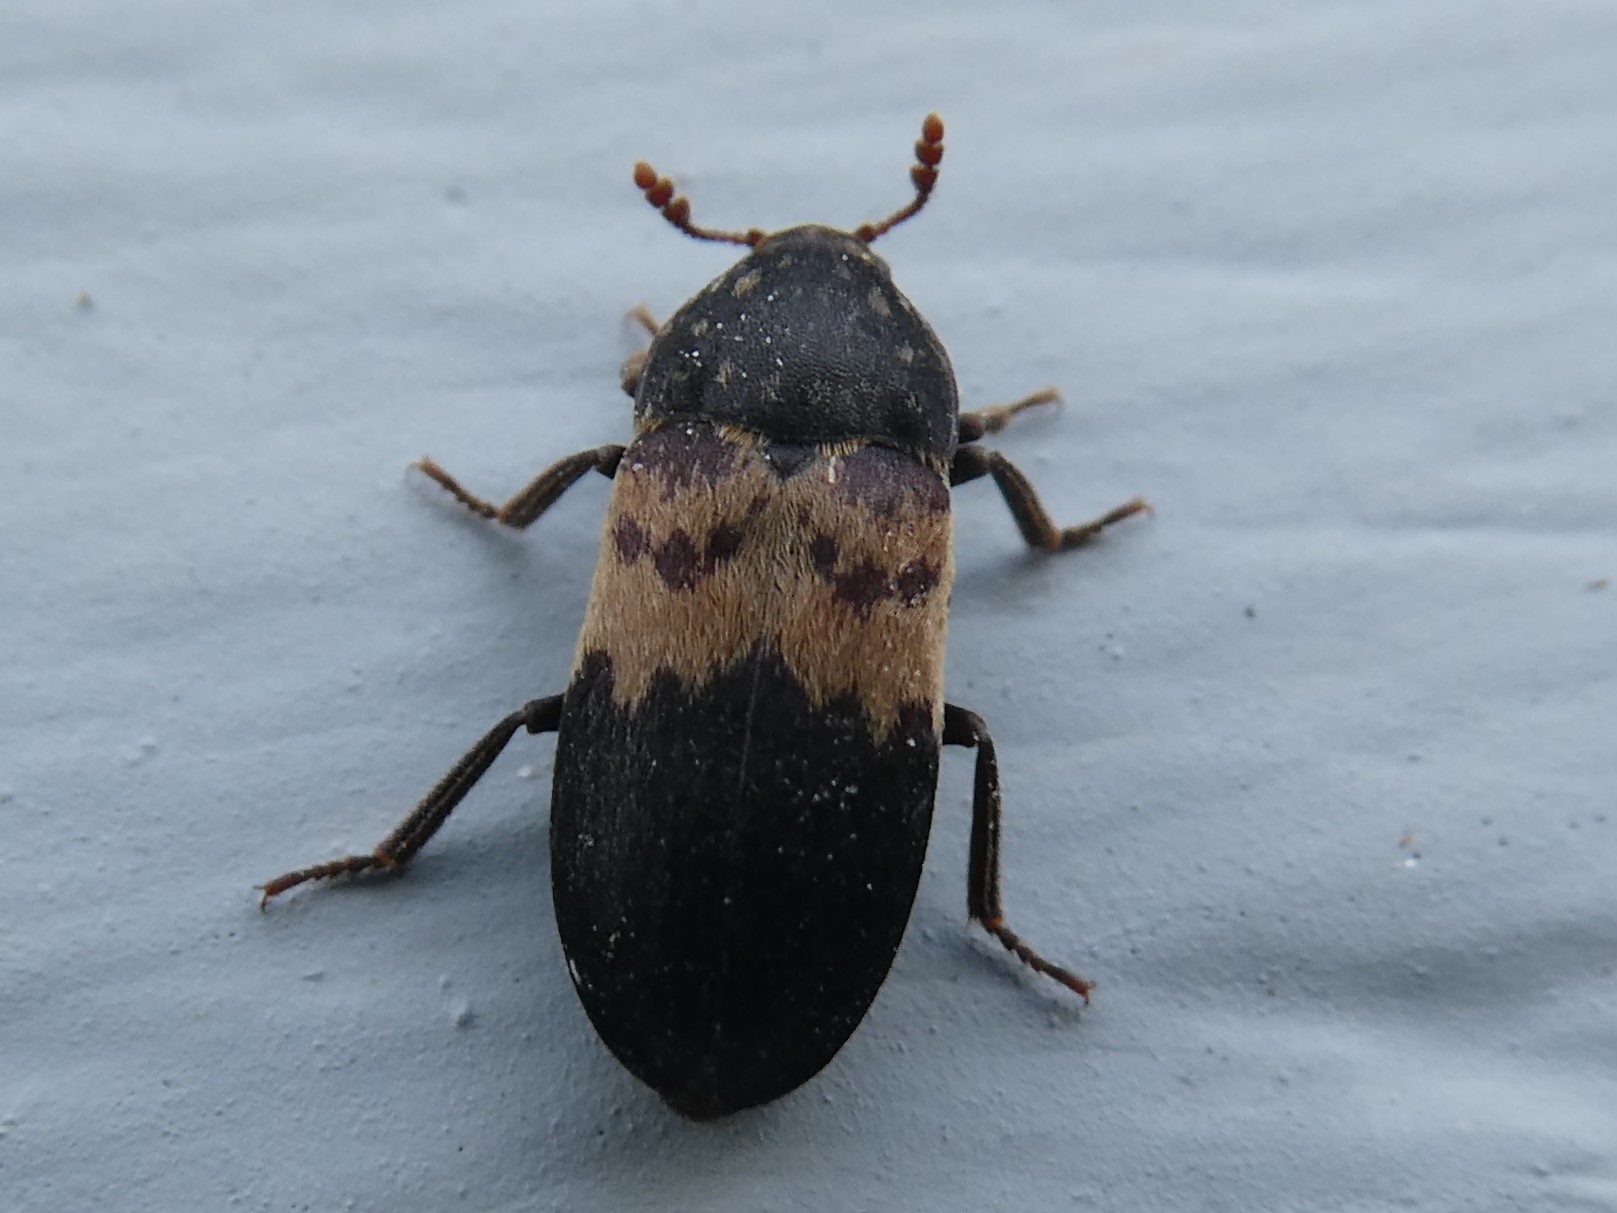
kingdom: Animalia
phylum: Arthropoda
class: Insecta
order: Coleoptera
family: Dermestidae
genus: Dermestes
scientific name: Dermestes lardarius
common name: Larder beetle
